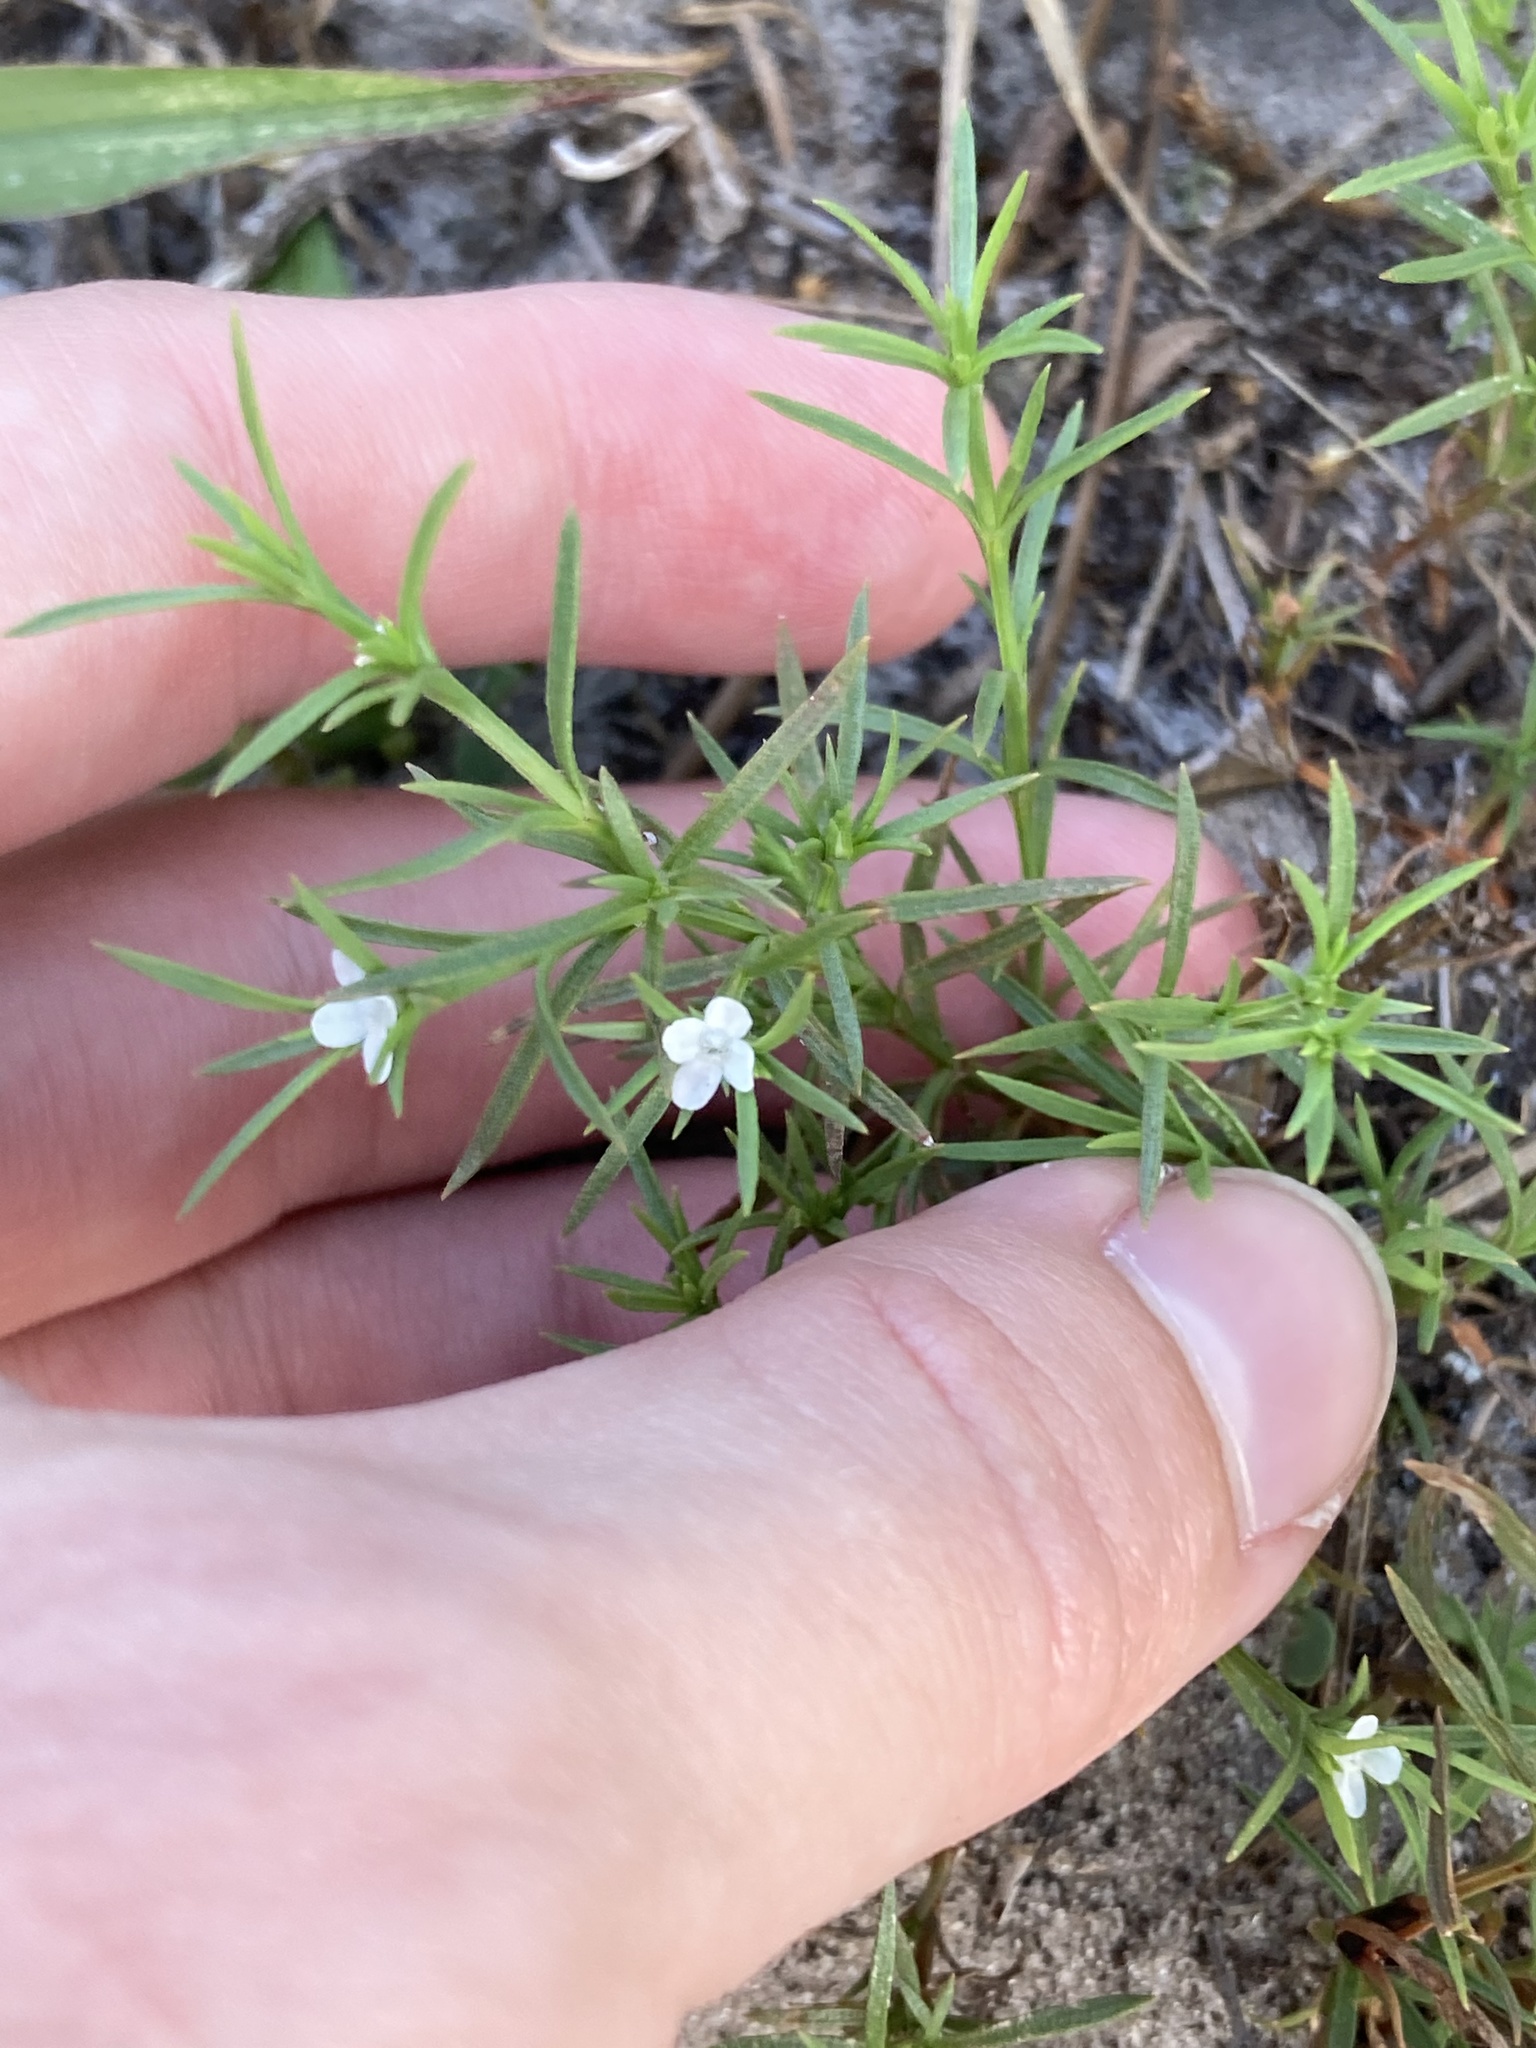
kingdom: Plantae
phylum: Tracheophyta
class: Magnoliopsida
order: Lamiales
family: Tetrachondraceae
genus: Polypremum
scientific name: Polypremum procumbens
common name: Juniper-leaf
